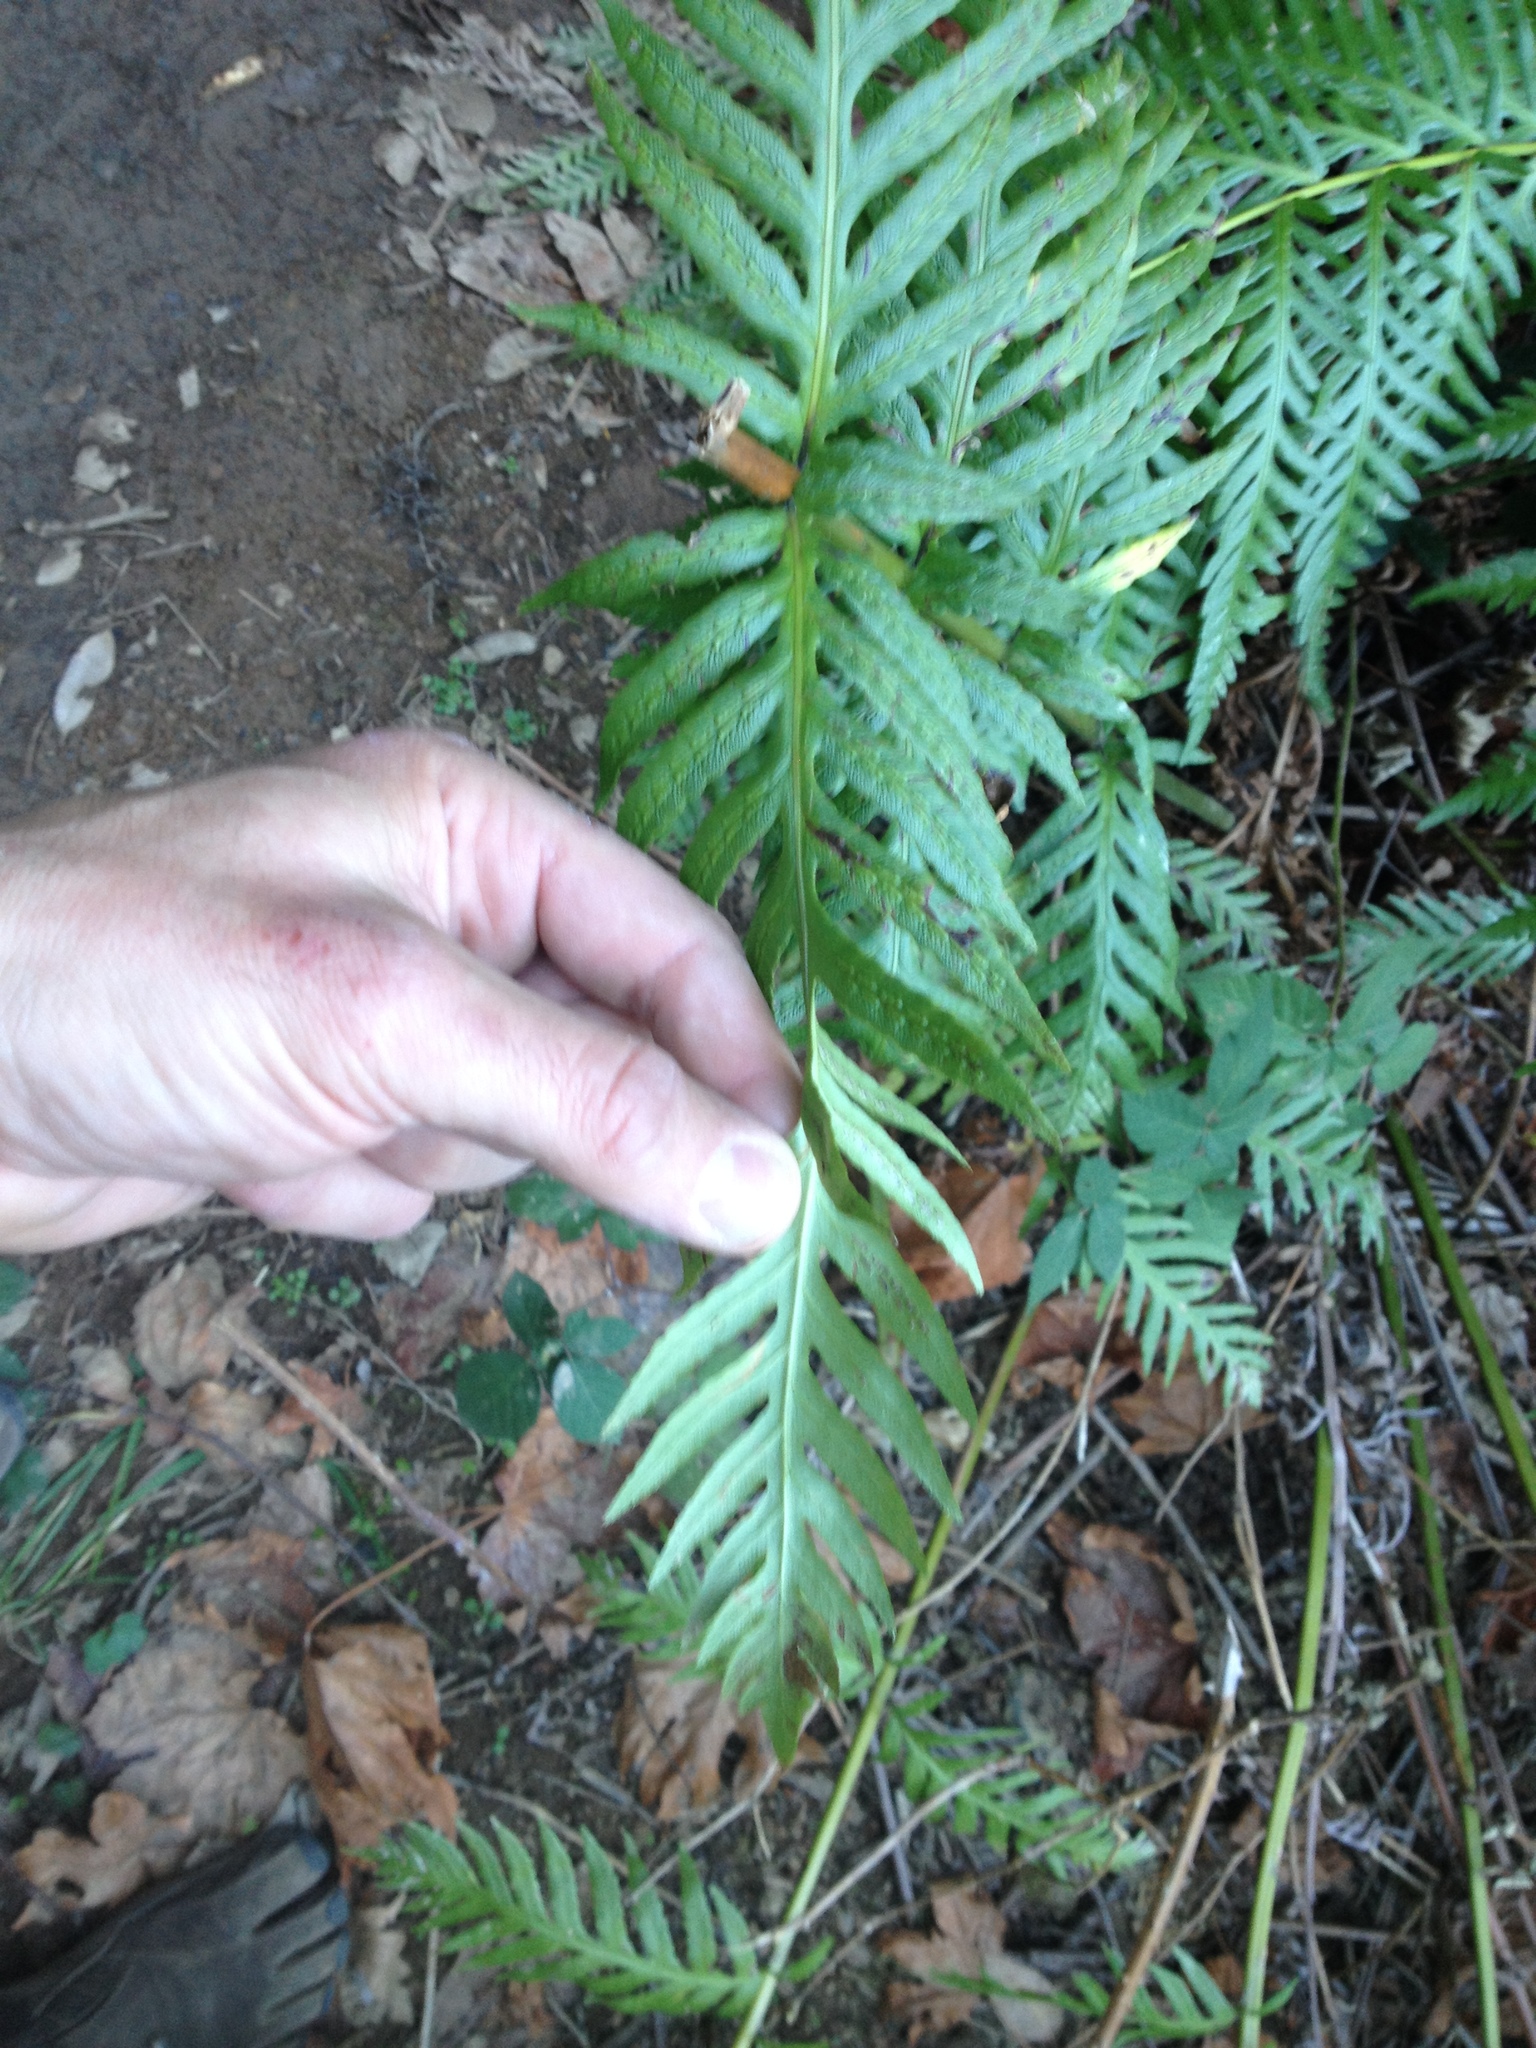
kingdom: Plantae
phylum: Tracheophyta
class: Polypodiopsida
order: Polypodiales
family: Blechnaceae
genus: Woodwardia
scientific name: Woodwardia fimbriata
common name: Giant chain fern
